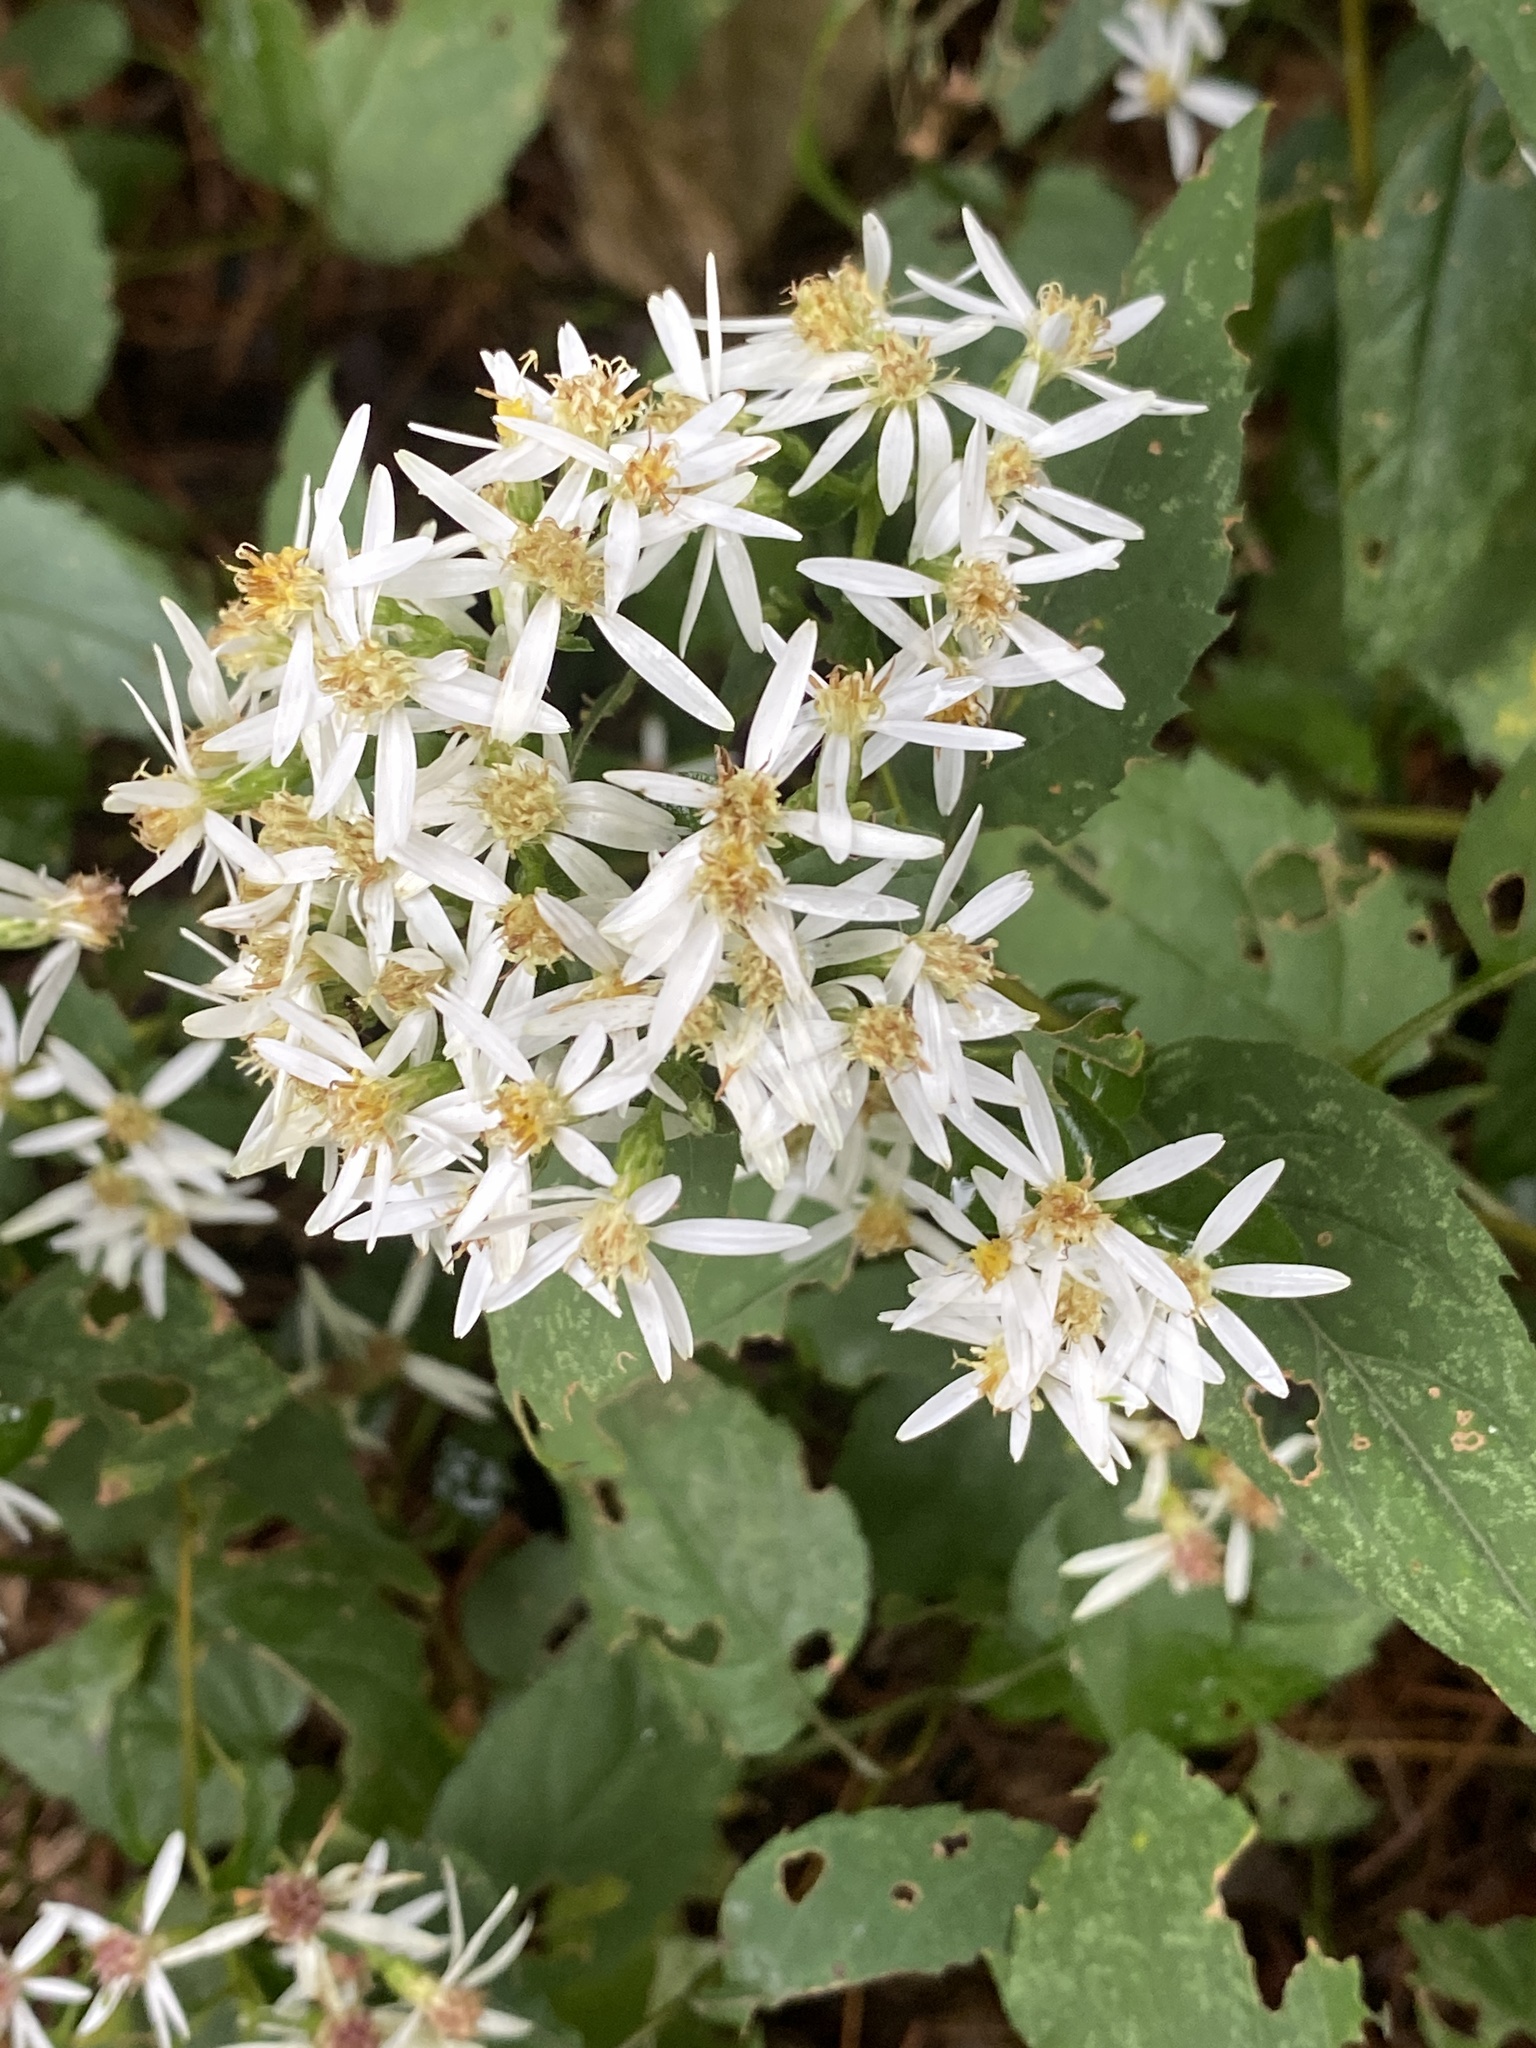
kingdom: Plantae
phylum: Tracheophyta
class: Magnoliopsida
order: Asterales
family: Asteraceae
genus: Eurybia
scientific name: Eurybia divaricata
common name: White wood aster
